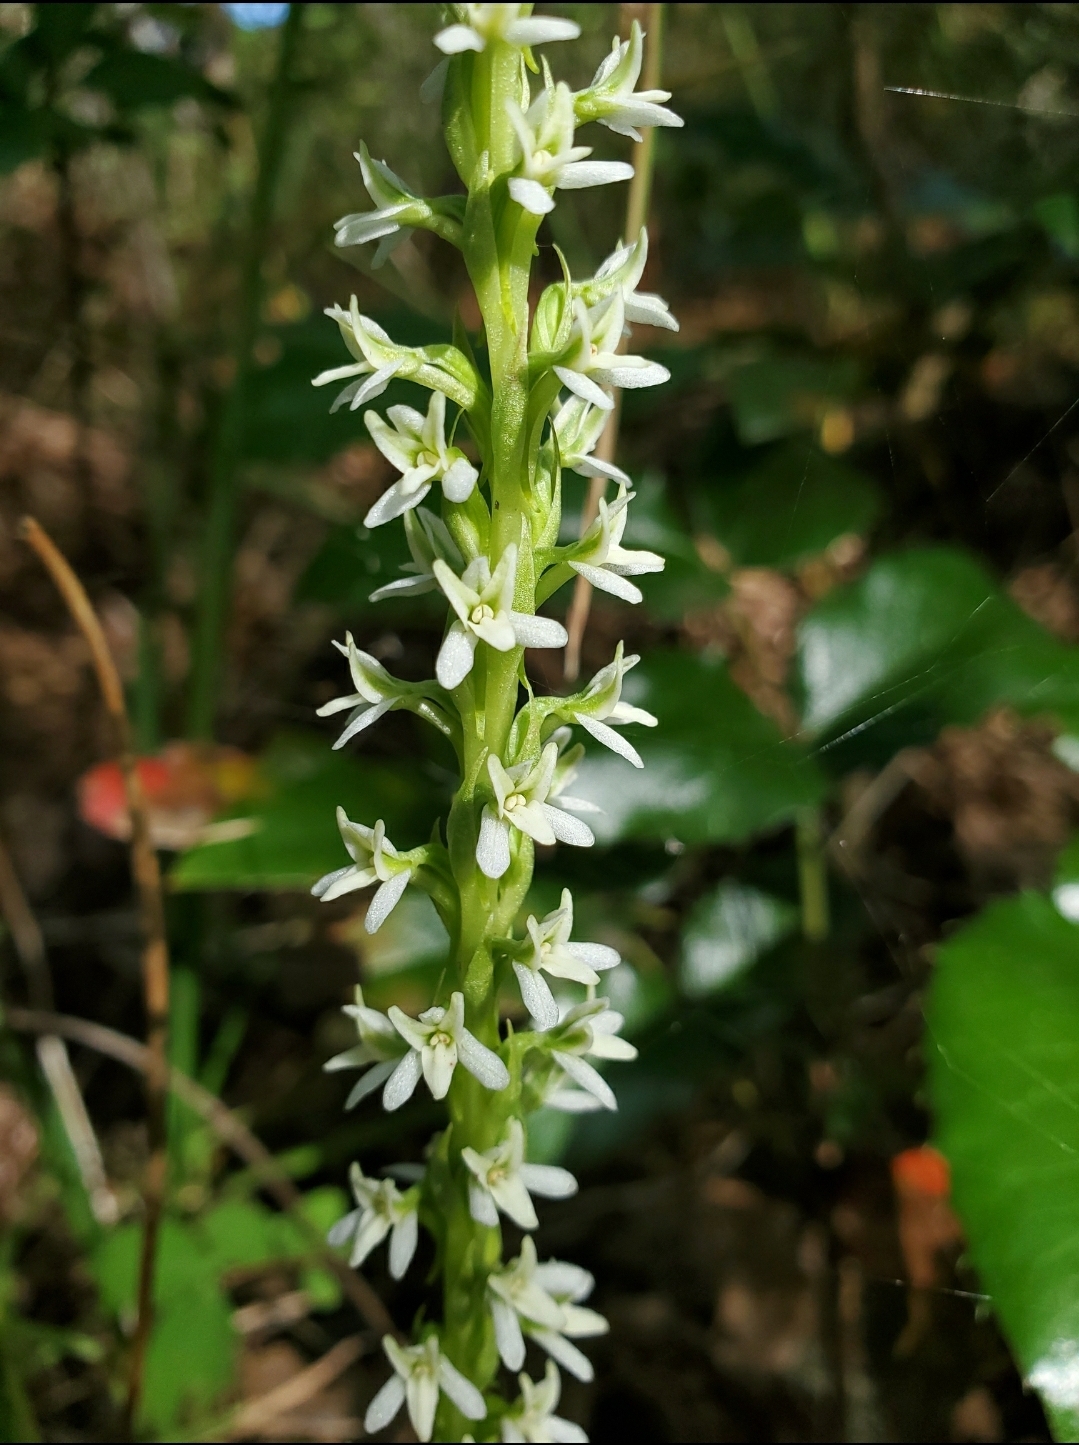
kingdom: Plantae
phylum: Tracheophyta
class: Liliopsida
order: Asparagales
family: Orchidaceae
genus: Platanthera
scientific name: Platanthera elegans
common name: Coast piperia
